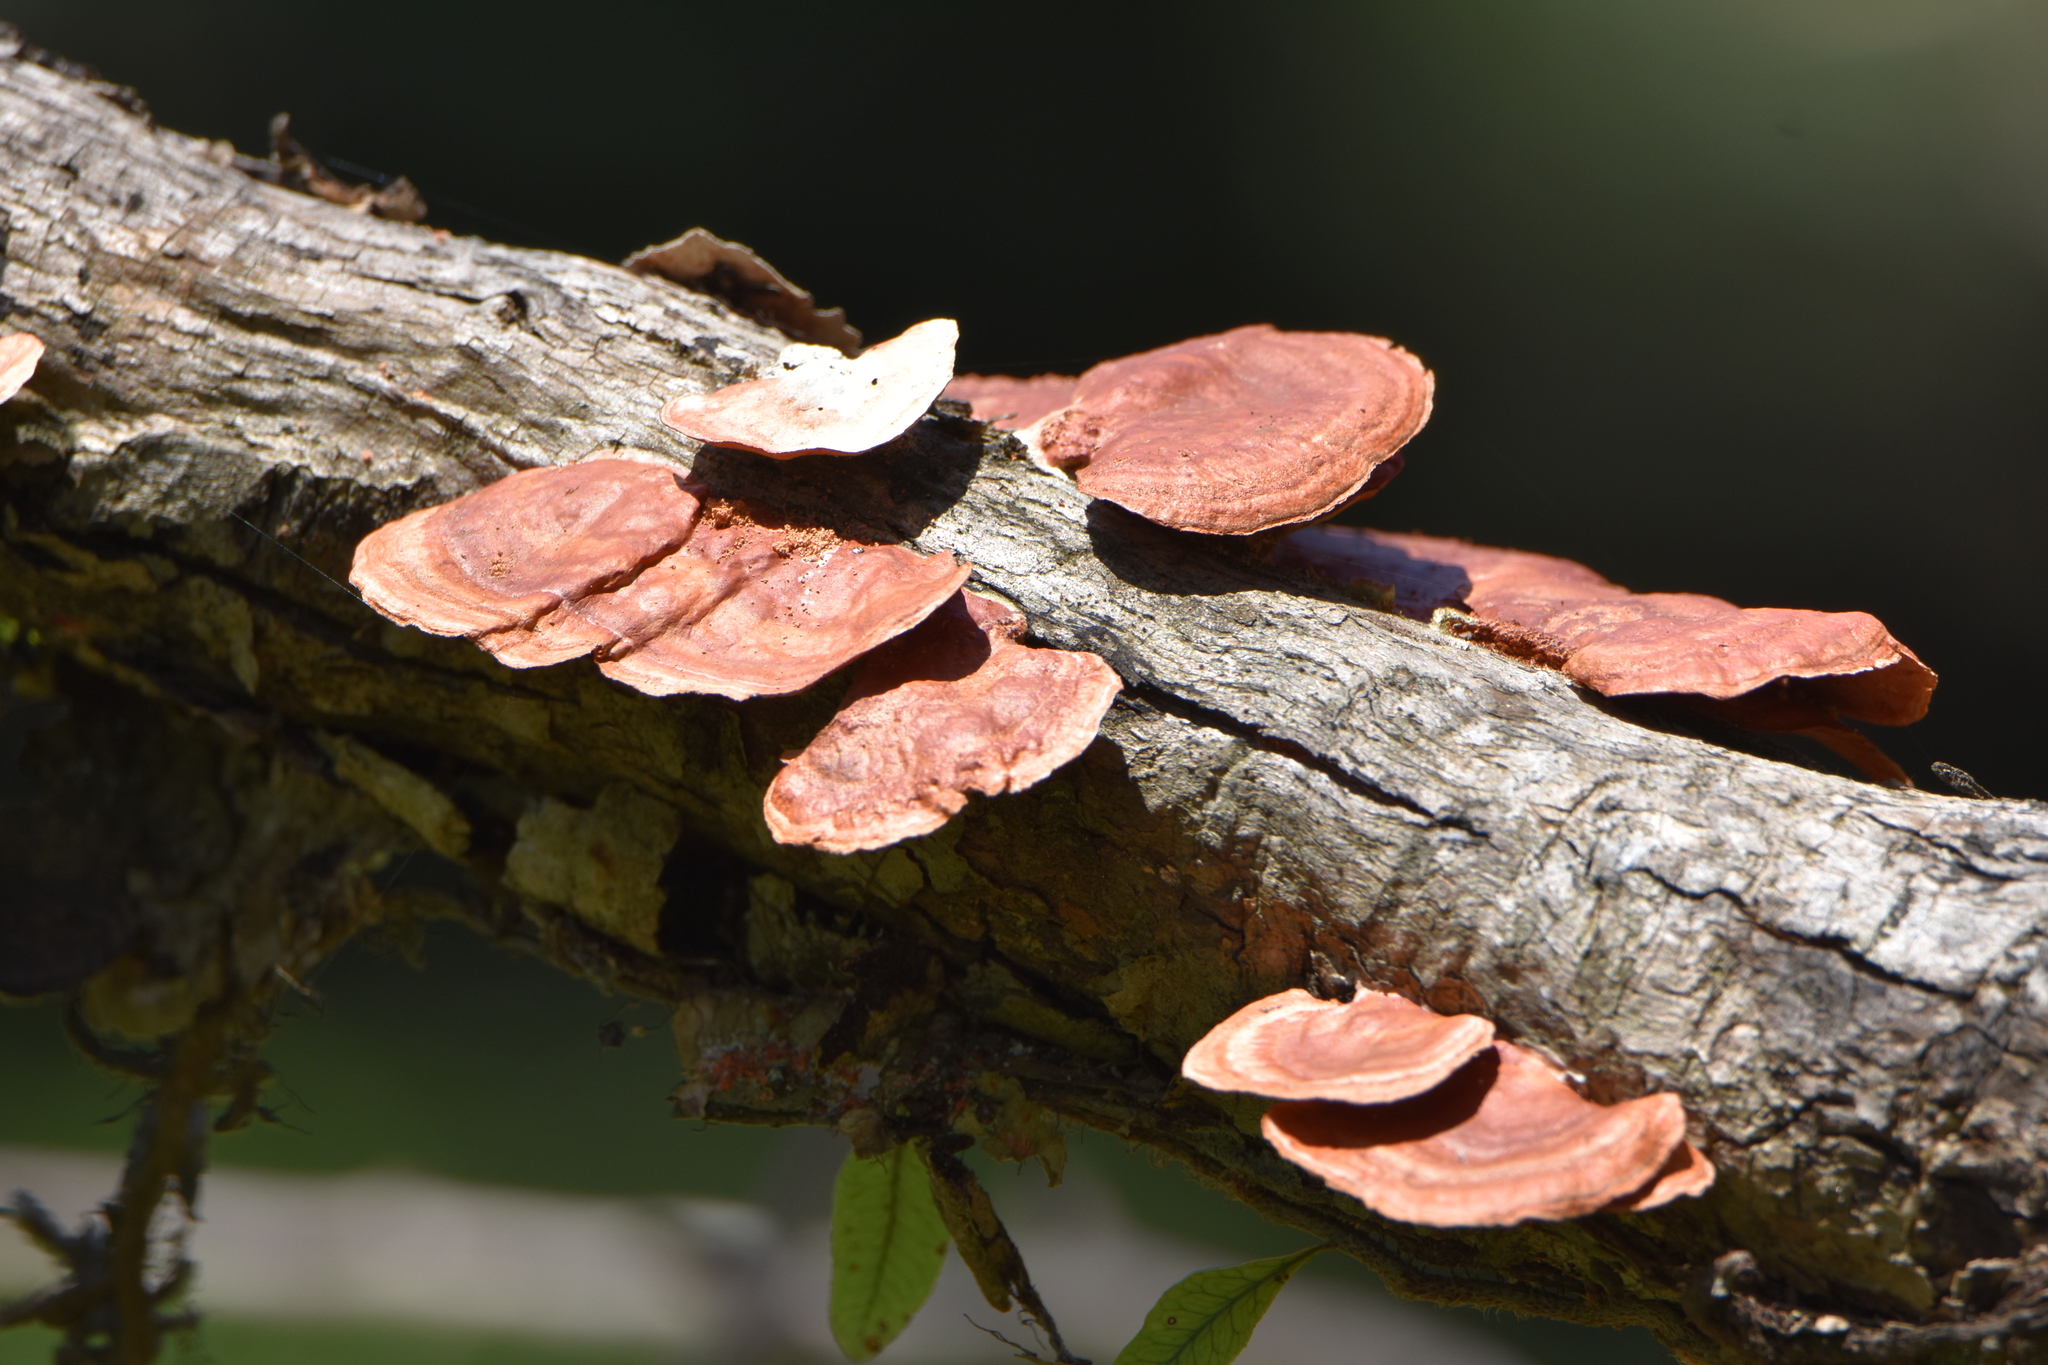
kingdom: Fungi
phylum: Basidiomycota
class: Agaricomycetes
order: Polyporales
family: Polyporaceae
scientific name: Polyporaceae
